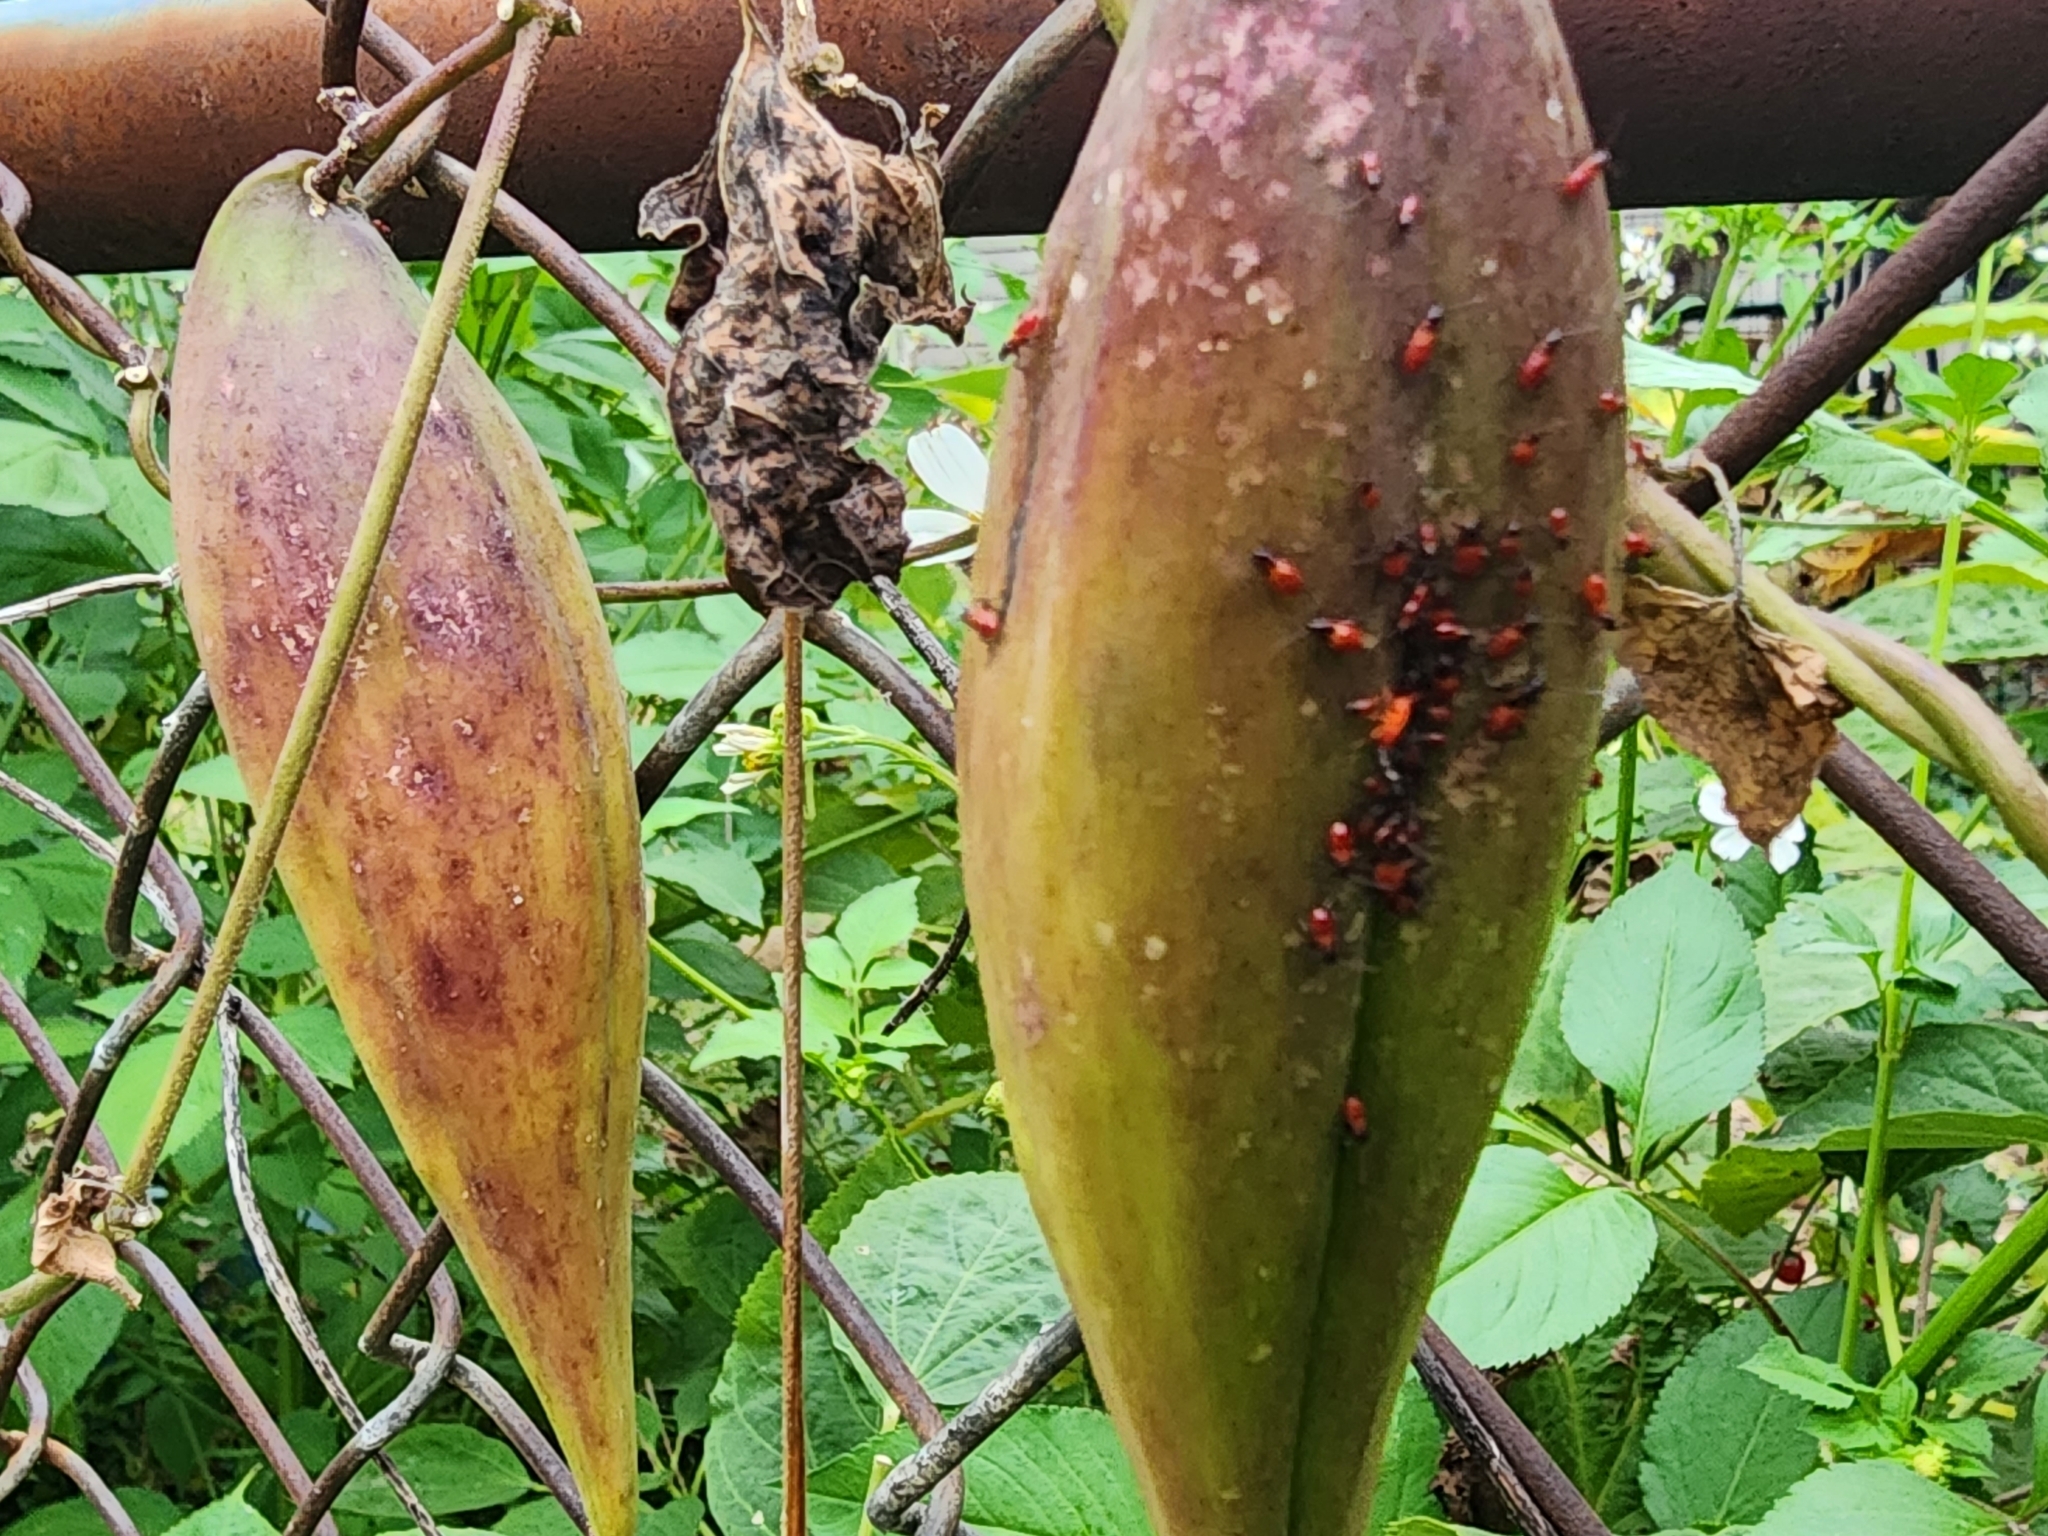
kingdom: Animalia
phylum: Arthropoda
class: Insecta
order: Hemiptera
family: Lygaeidae
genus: Oncopeltus
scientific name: Oncopeltus fasciatus
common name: Large milkweed bug
